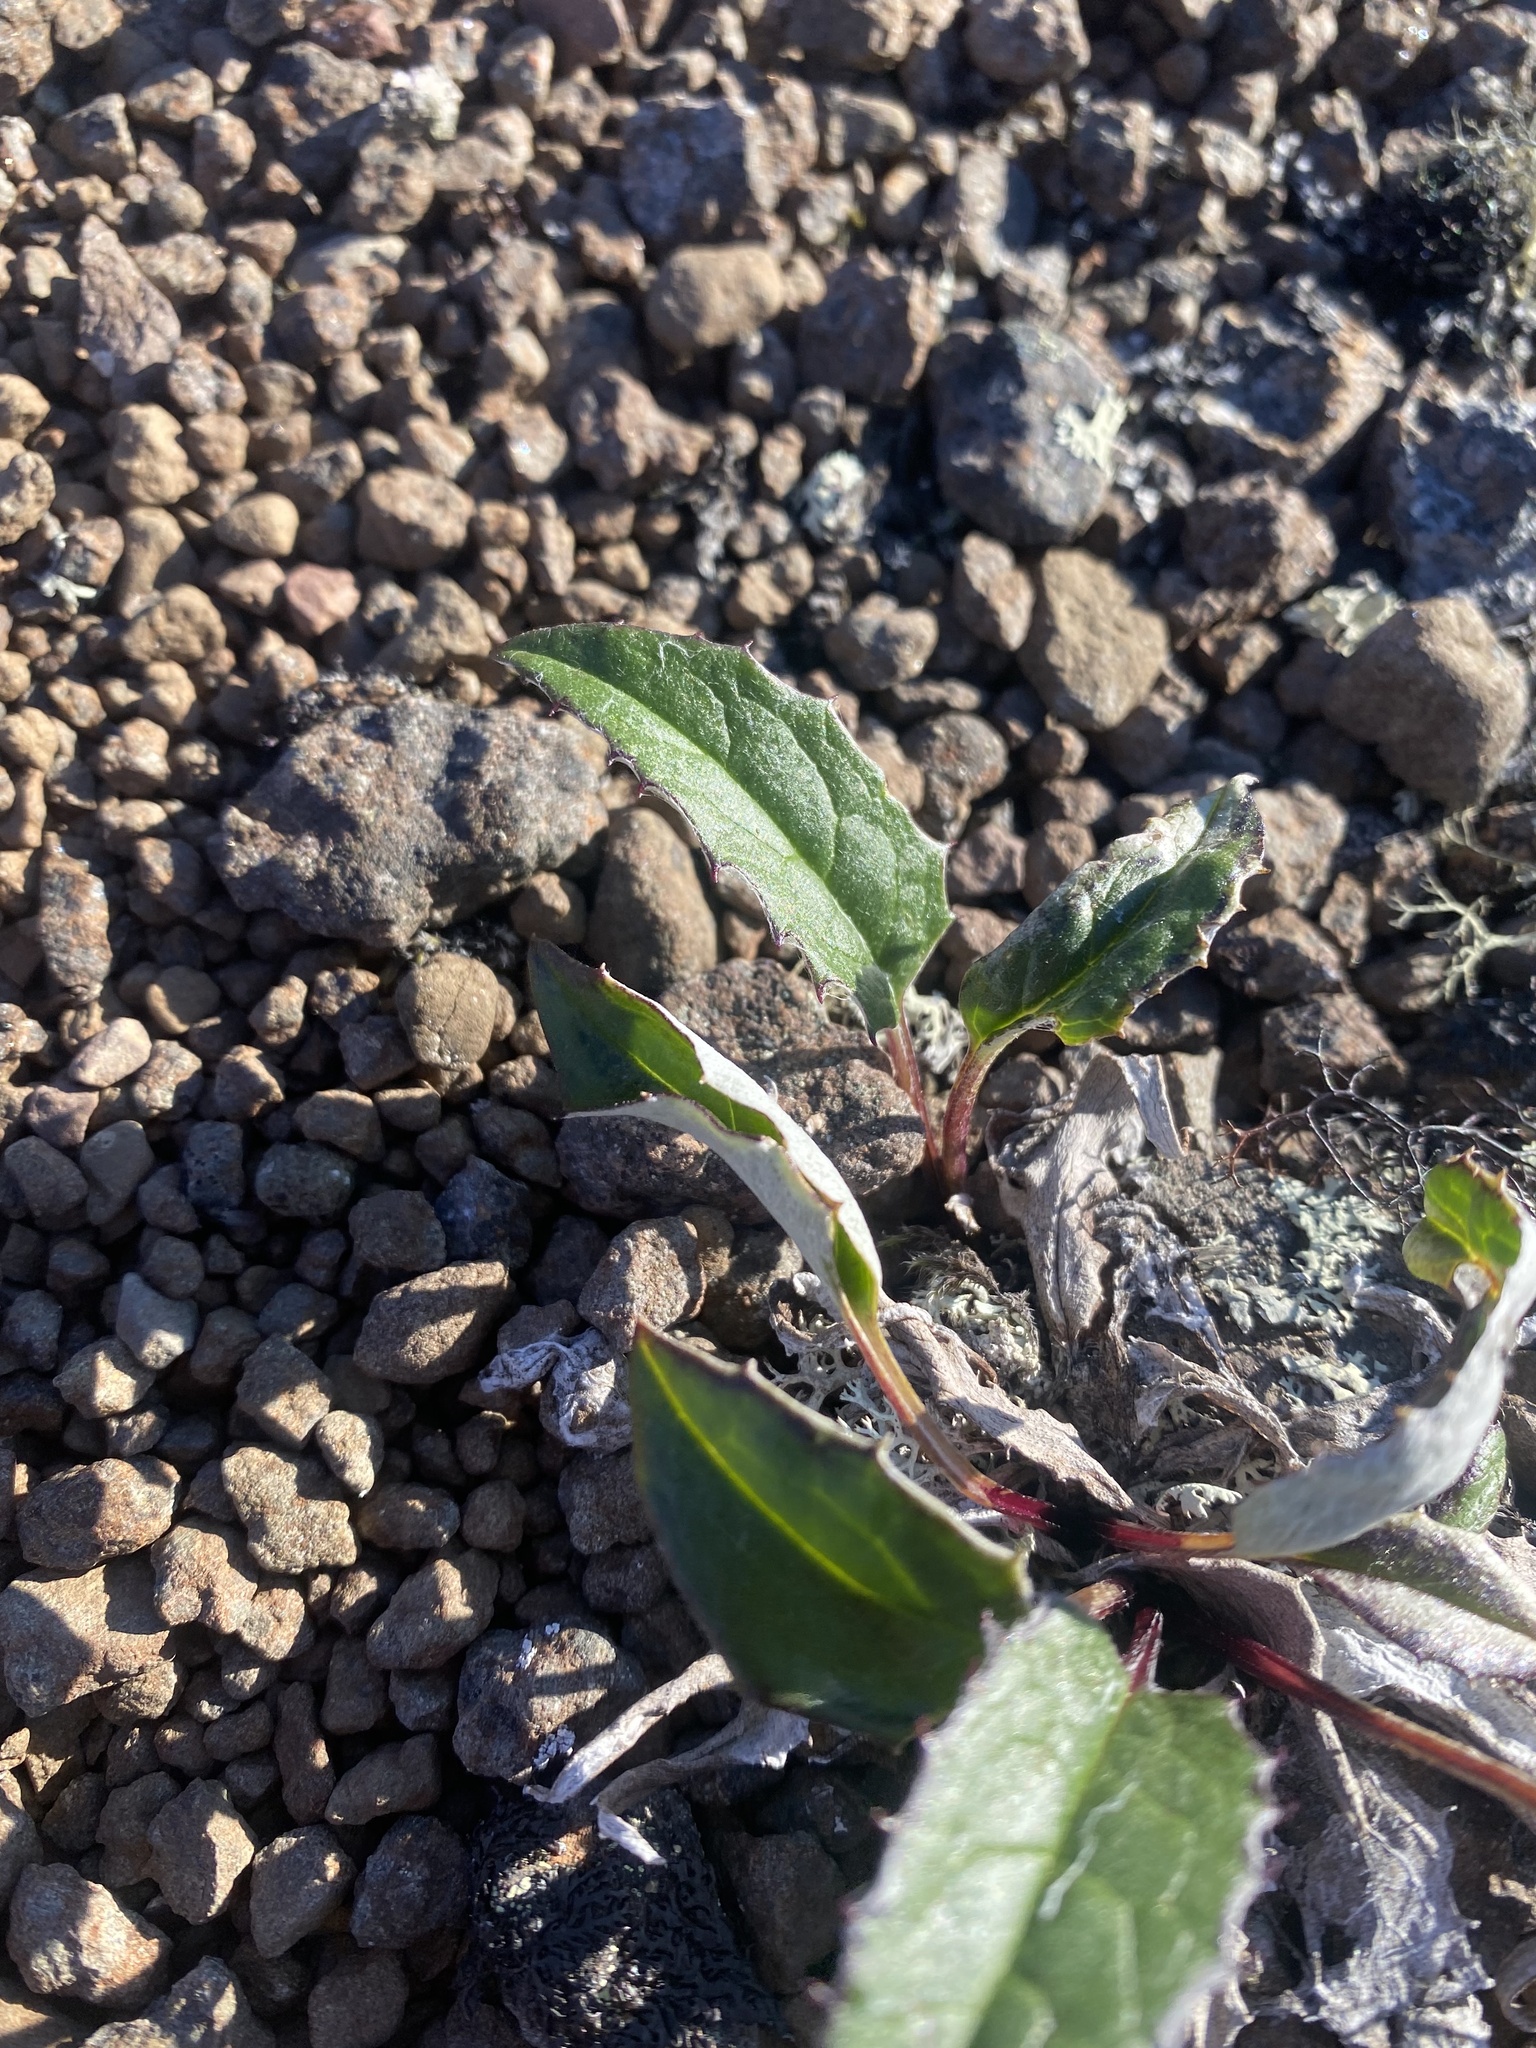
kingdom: Plantae
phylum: Tracheophyta
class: Magnoliopsida
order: Asterales
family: Asteraceae
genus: Saussurea
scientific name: Saussurea tilesii
